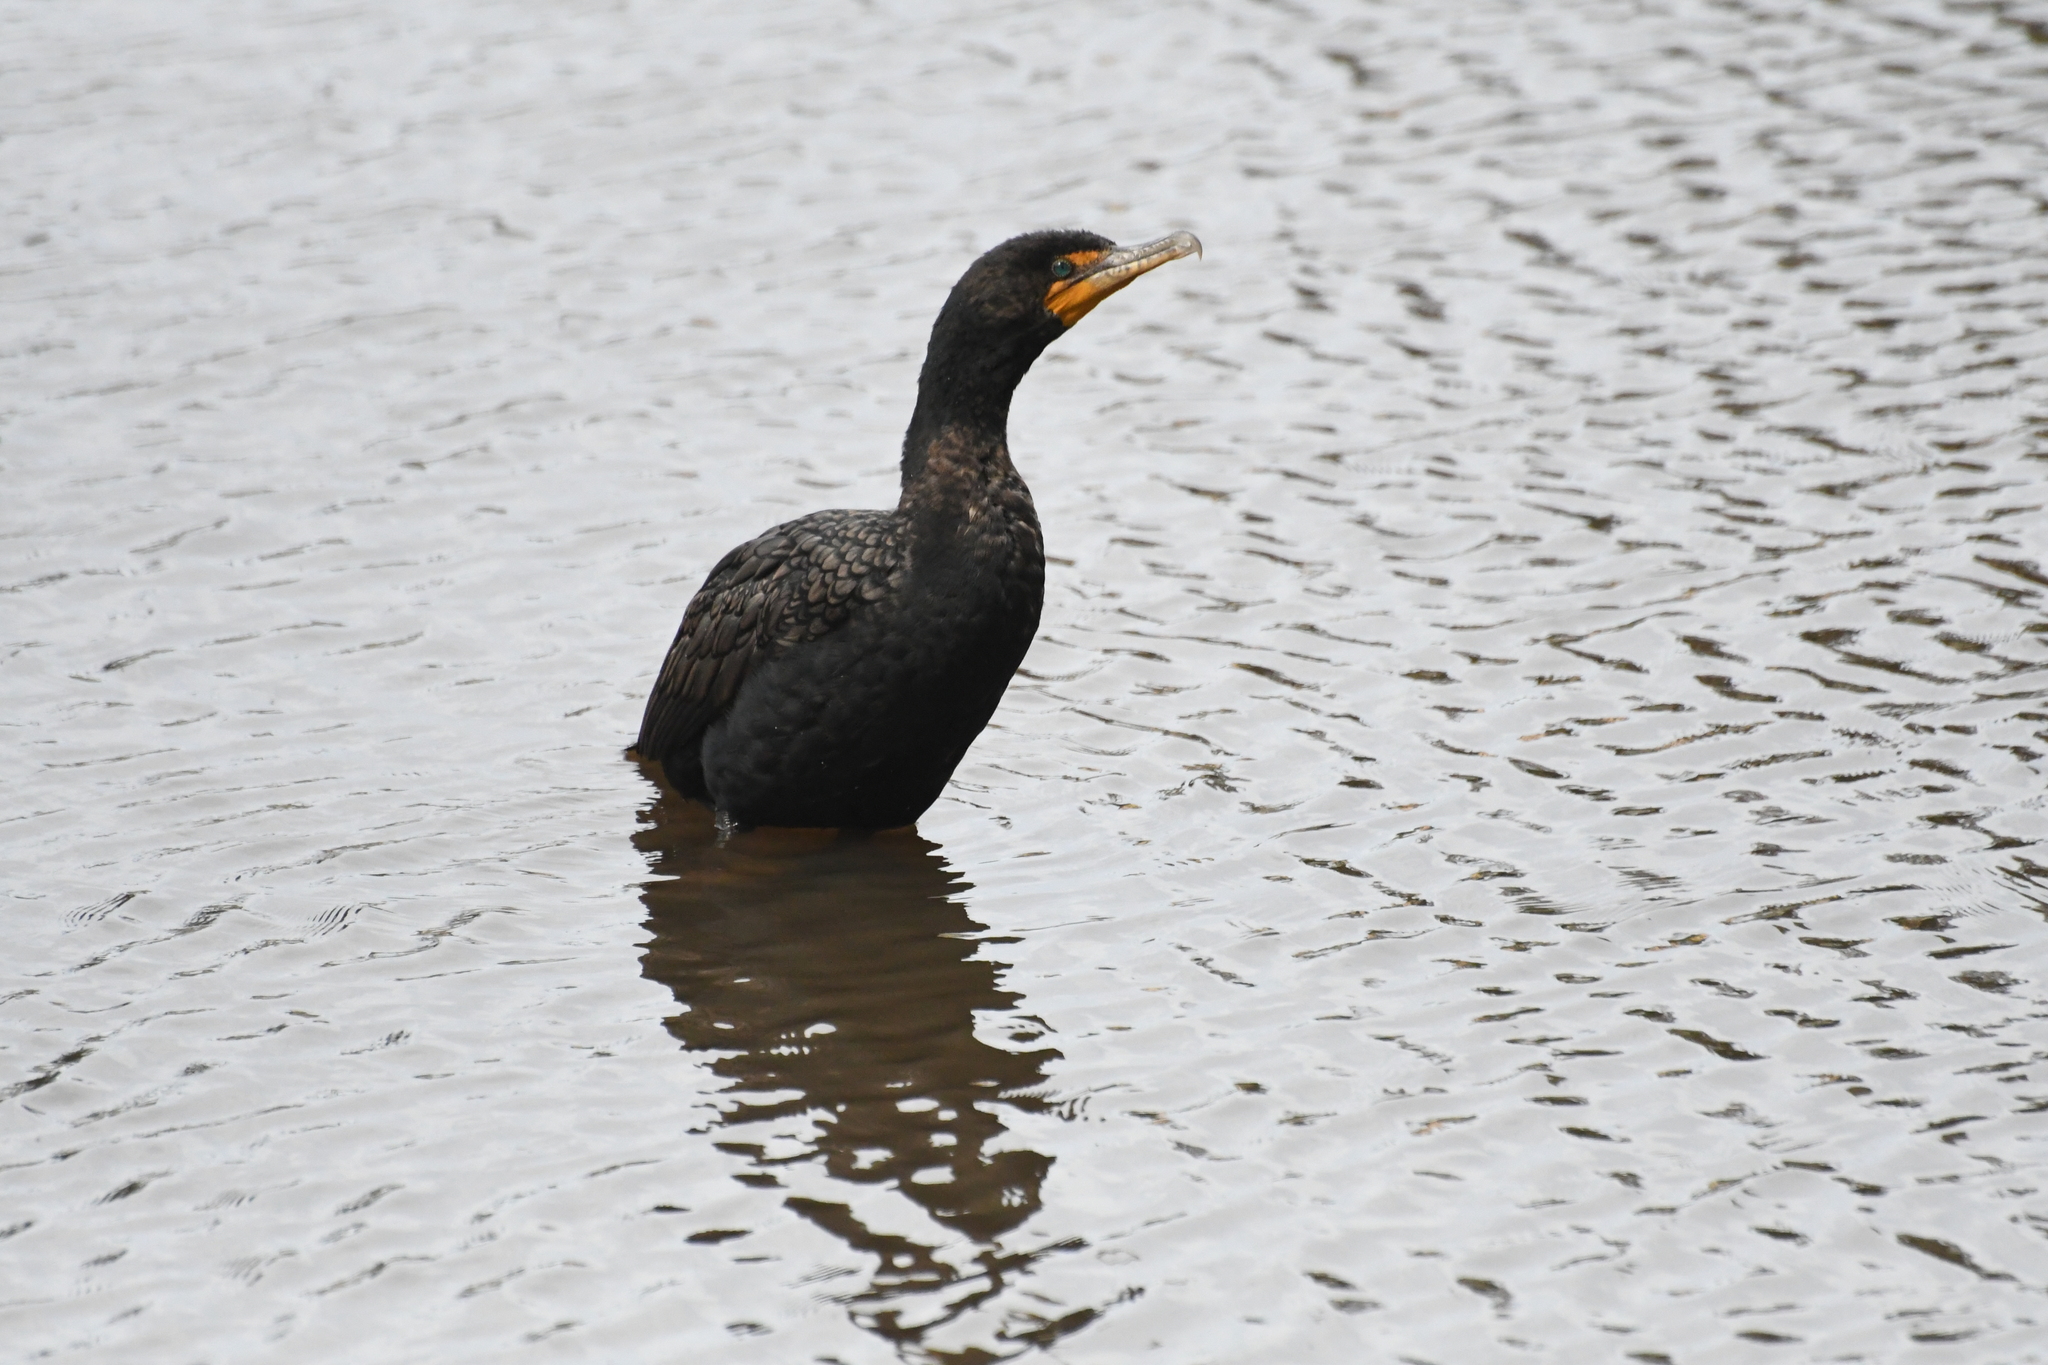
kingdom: Animalia
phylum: Chordata
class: Aves
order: Suliformes
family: Phalacrocoracidae
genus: Phalacrocorax
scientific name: Phalacrocorax auritus
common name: Double-crested cormorant
